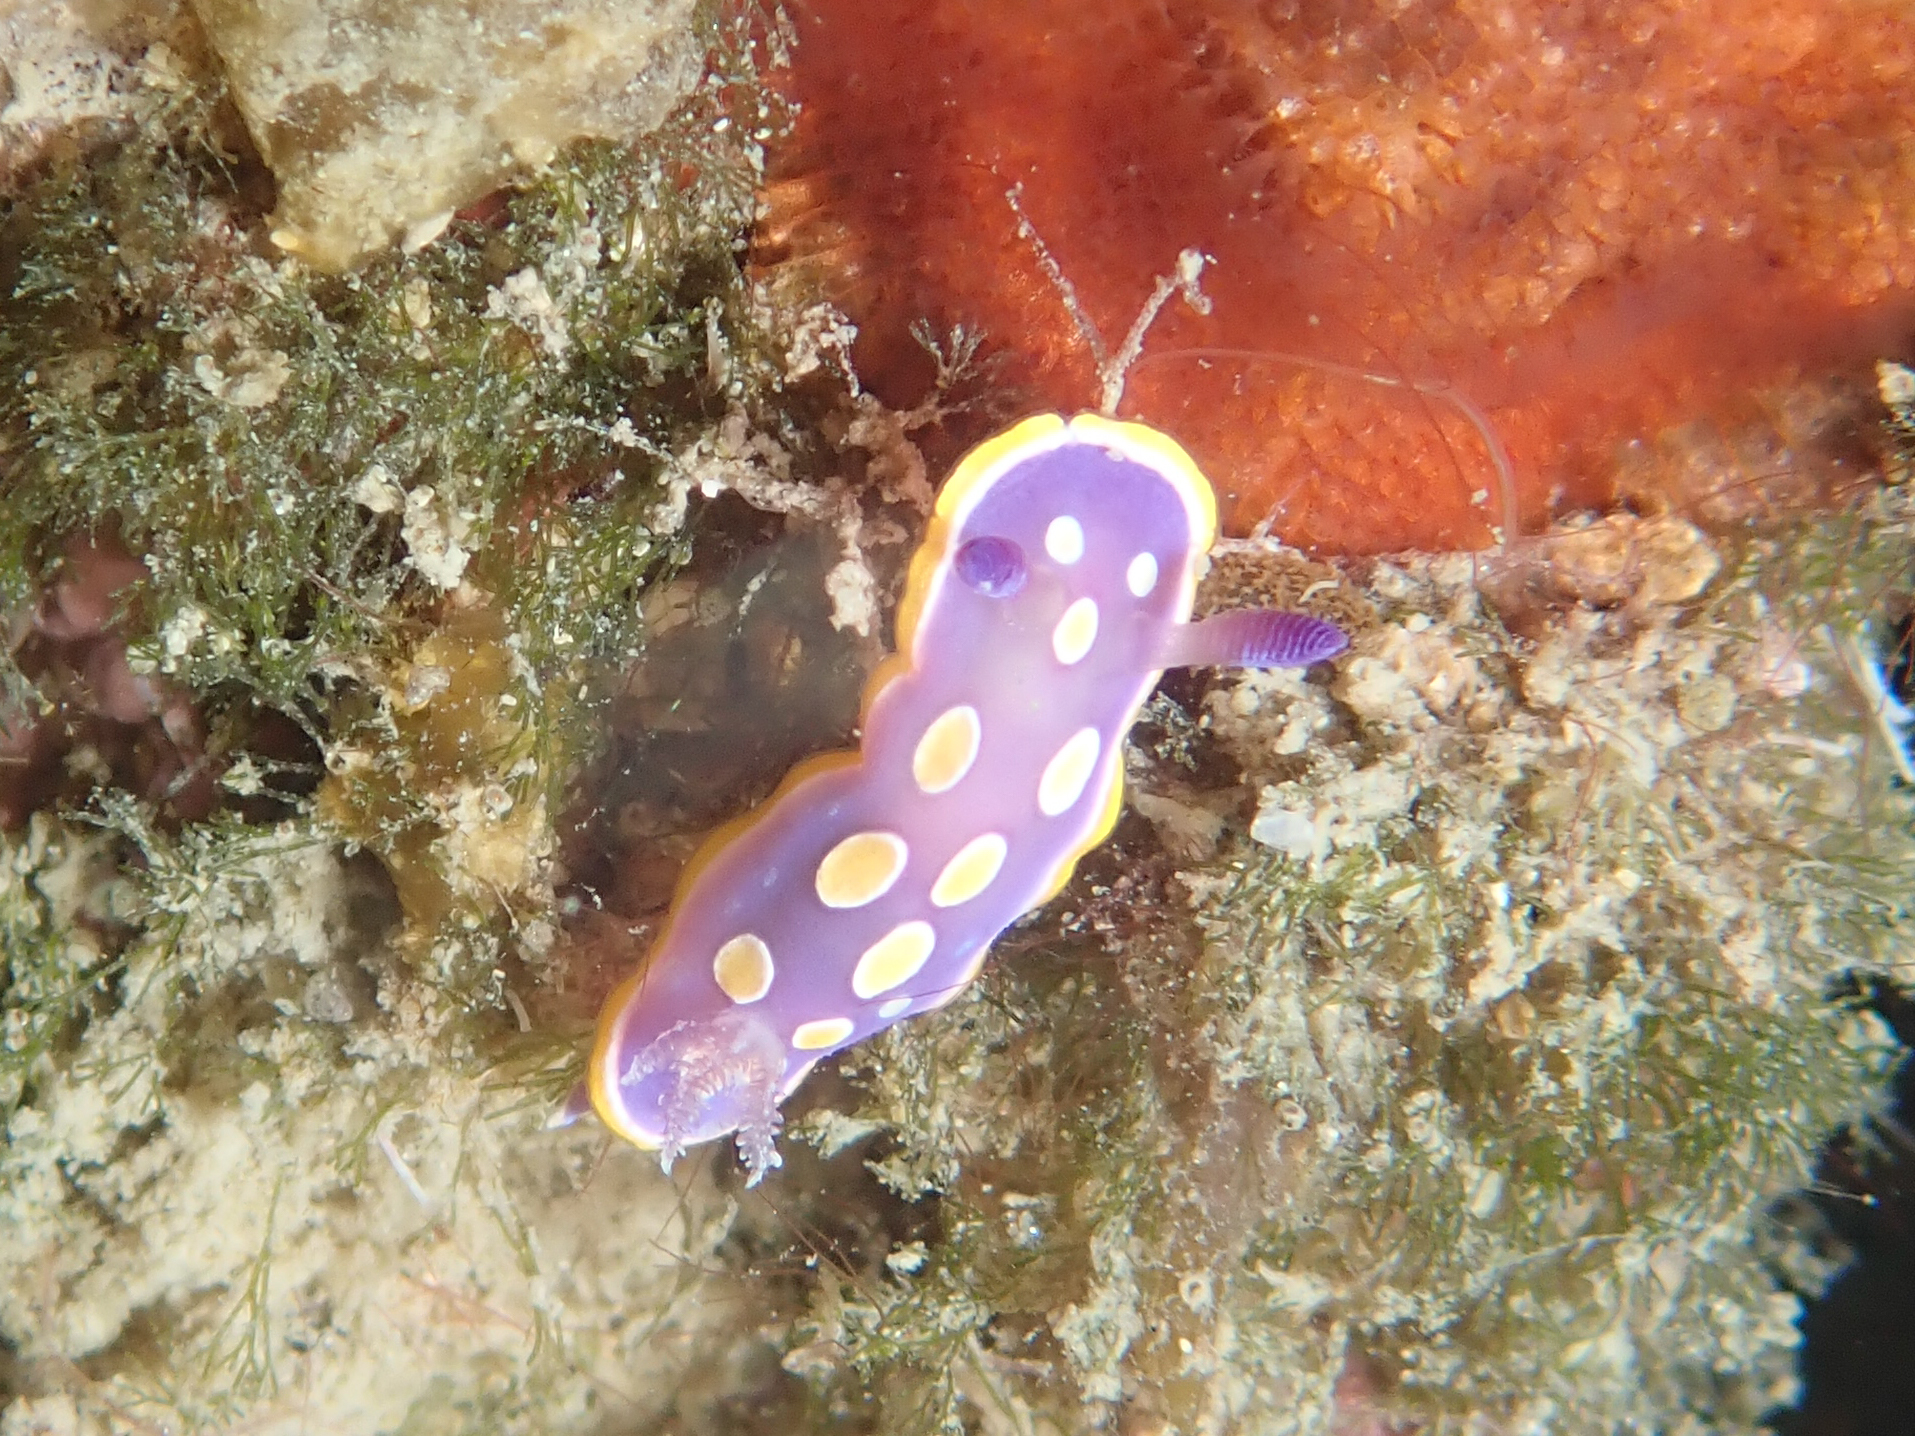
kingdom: Animalia
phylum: Mollusca
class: Gastropoda
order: Nudibranchia
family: Chromodorididae
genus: Felimida
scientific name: Felimida luteorosea
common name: Yellow-dotted doris
